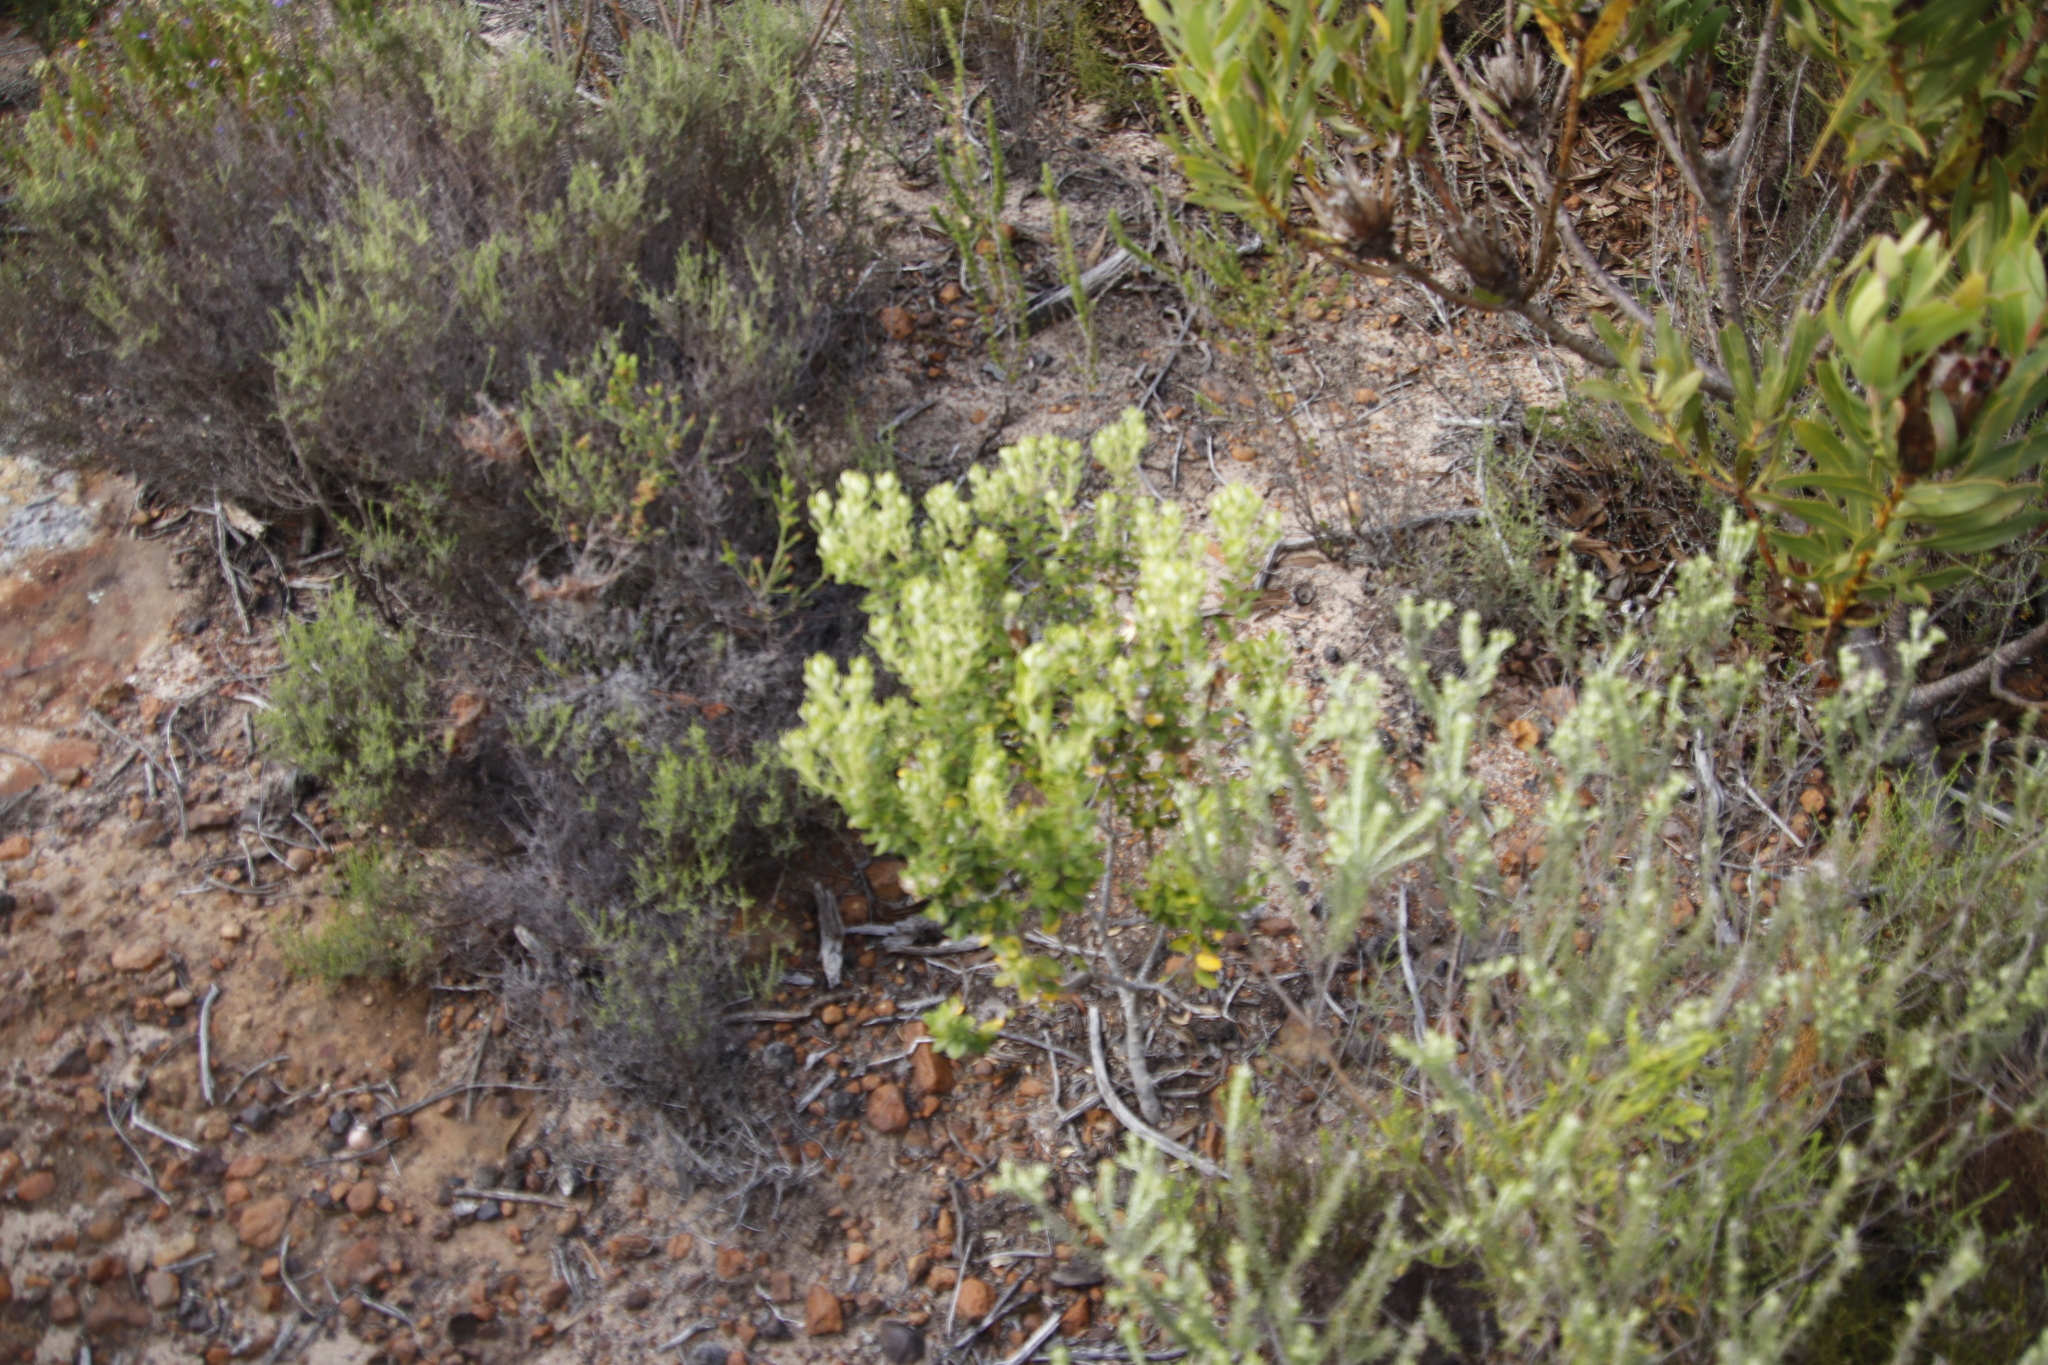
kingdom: Plantae
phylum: Tracheophyta
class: Magnoliopsida
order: Rosales
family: Rhamnaceae
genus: Phylica
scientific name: Phylica buxifolia
